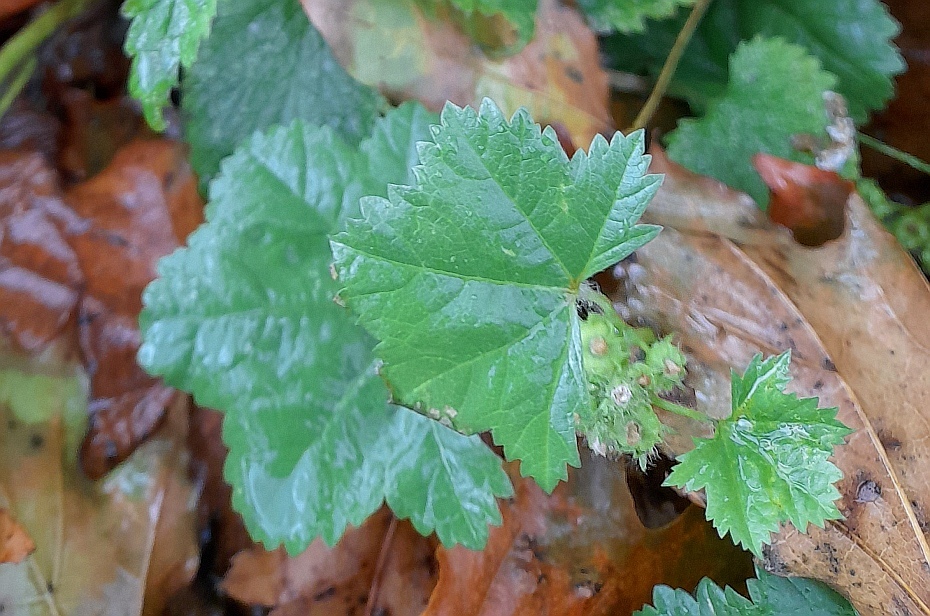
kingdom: Plantae
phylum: Tracheophyta
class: Magnoliopsida
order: Malvales
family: Malvaceae
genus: Malva
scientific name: Malva pusilla
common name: Small mallow
